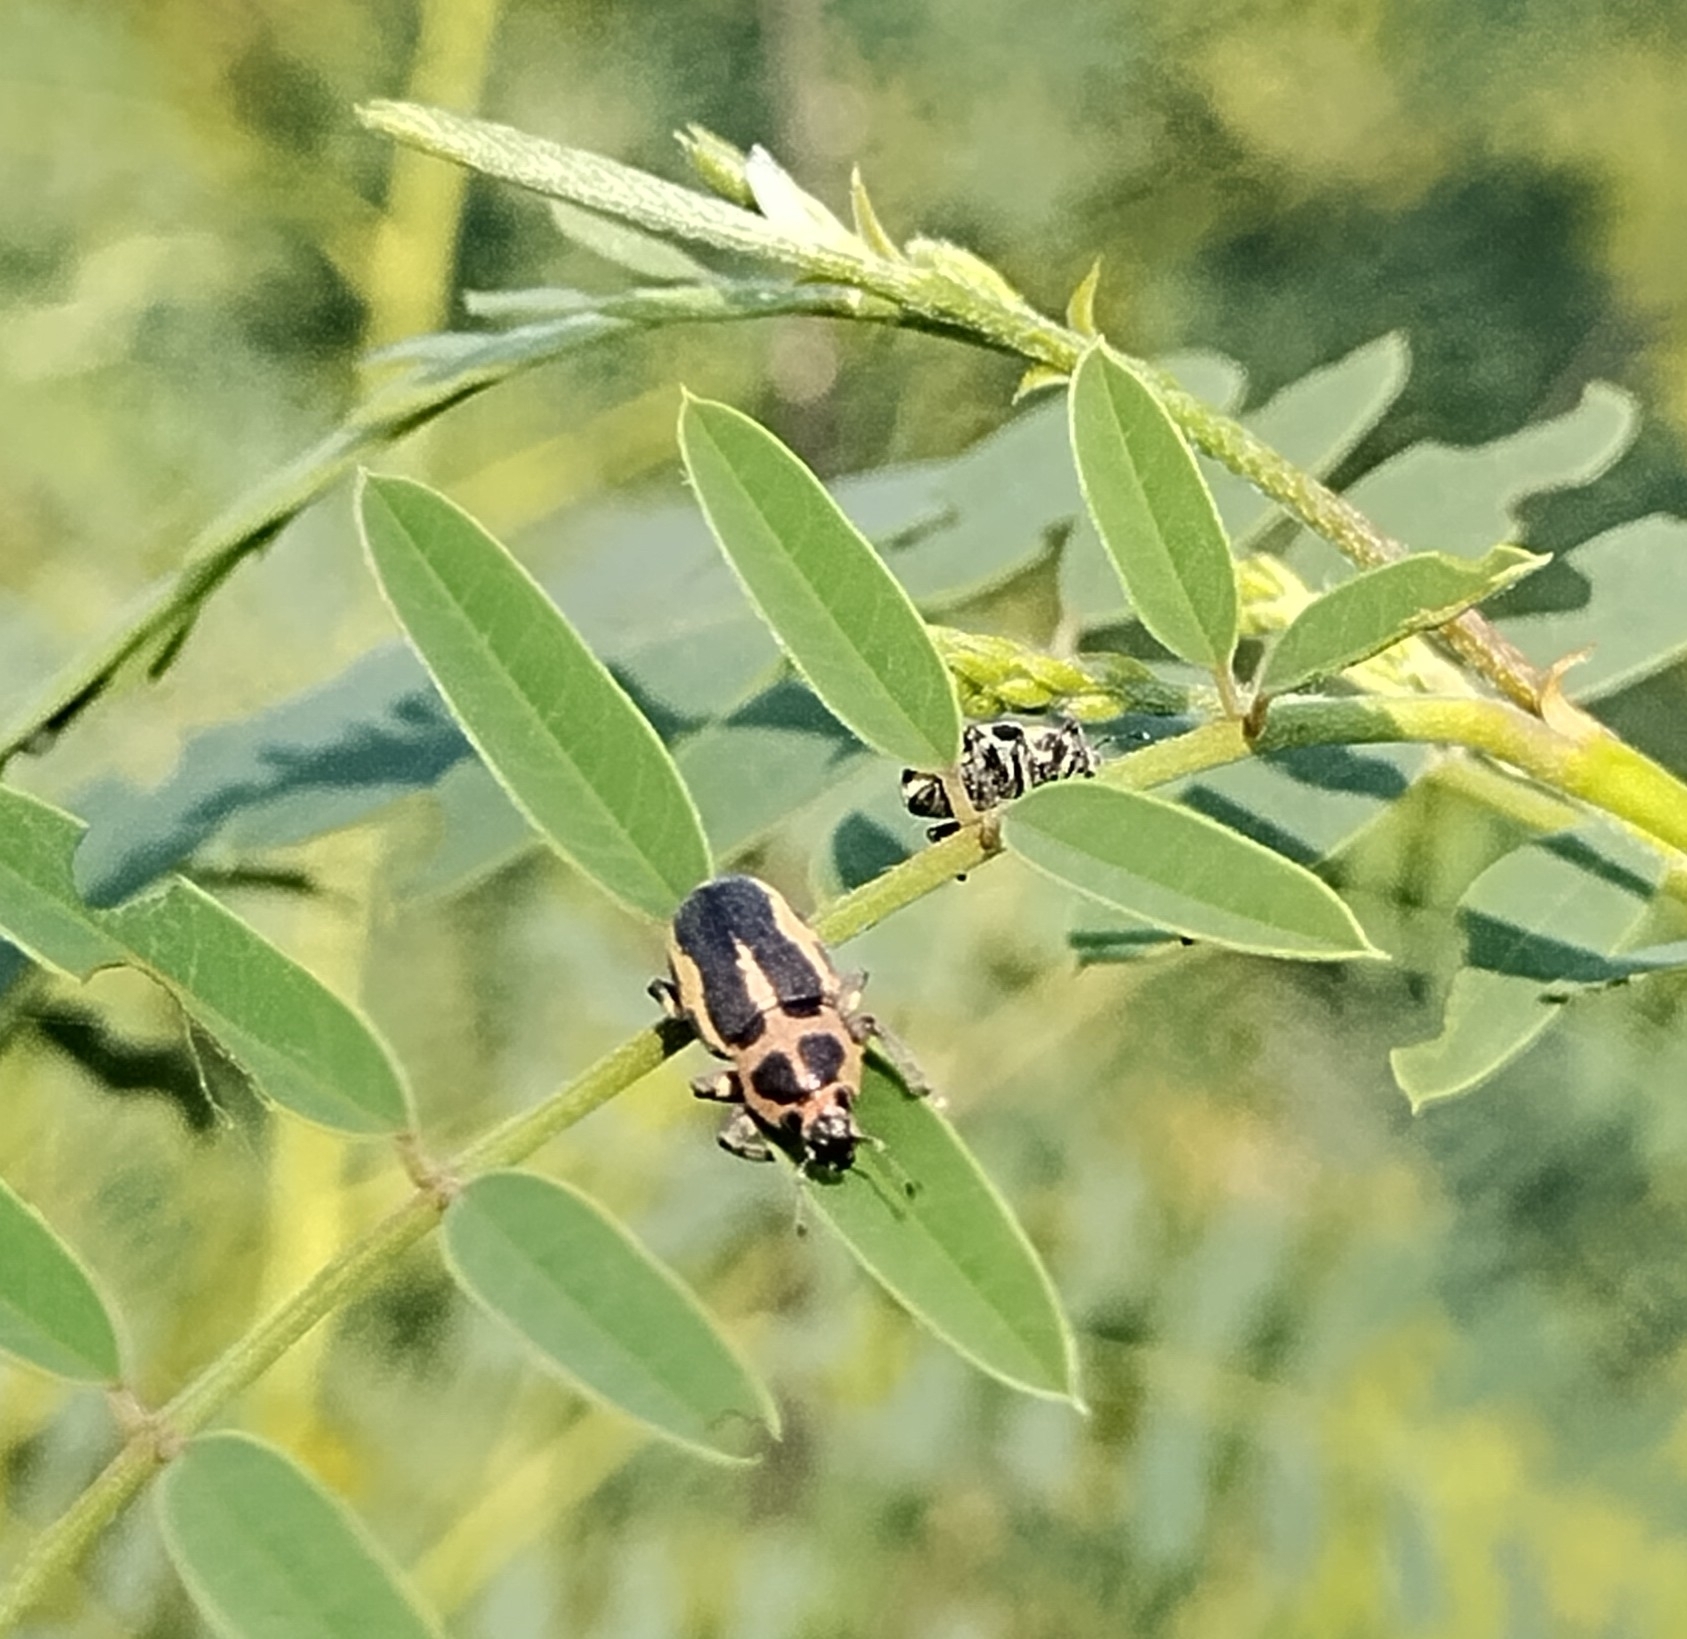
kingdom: Animalia
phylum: Arthropoda
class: Insecta
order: Coleoptera
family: Curculionidae
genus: Eudiagogus
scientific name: Eudiagogus pulcher
